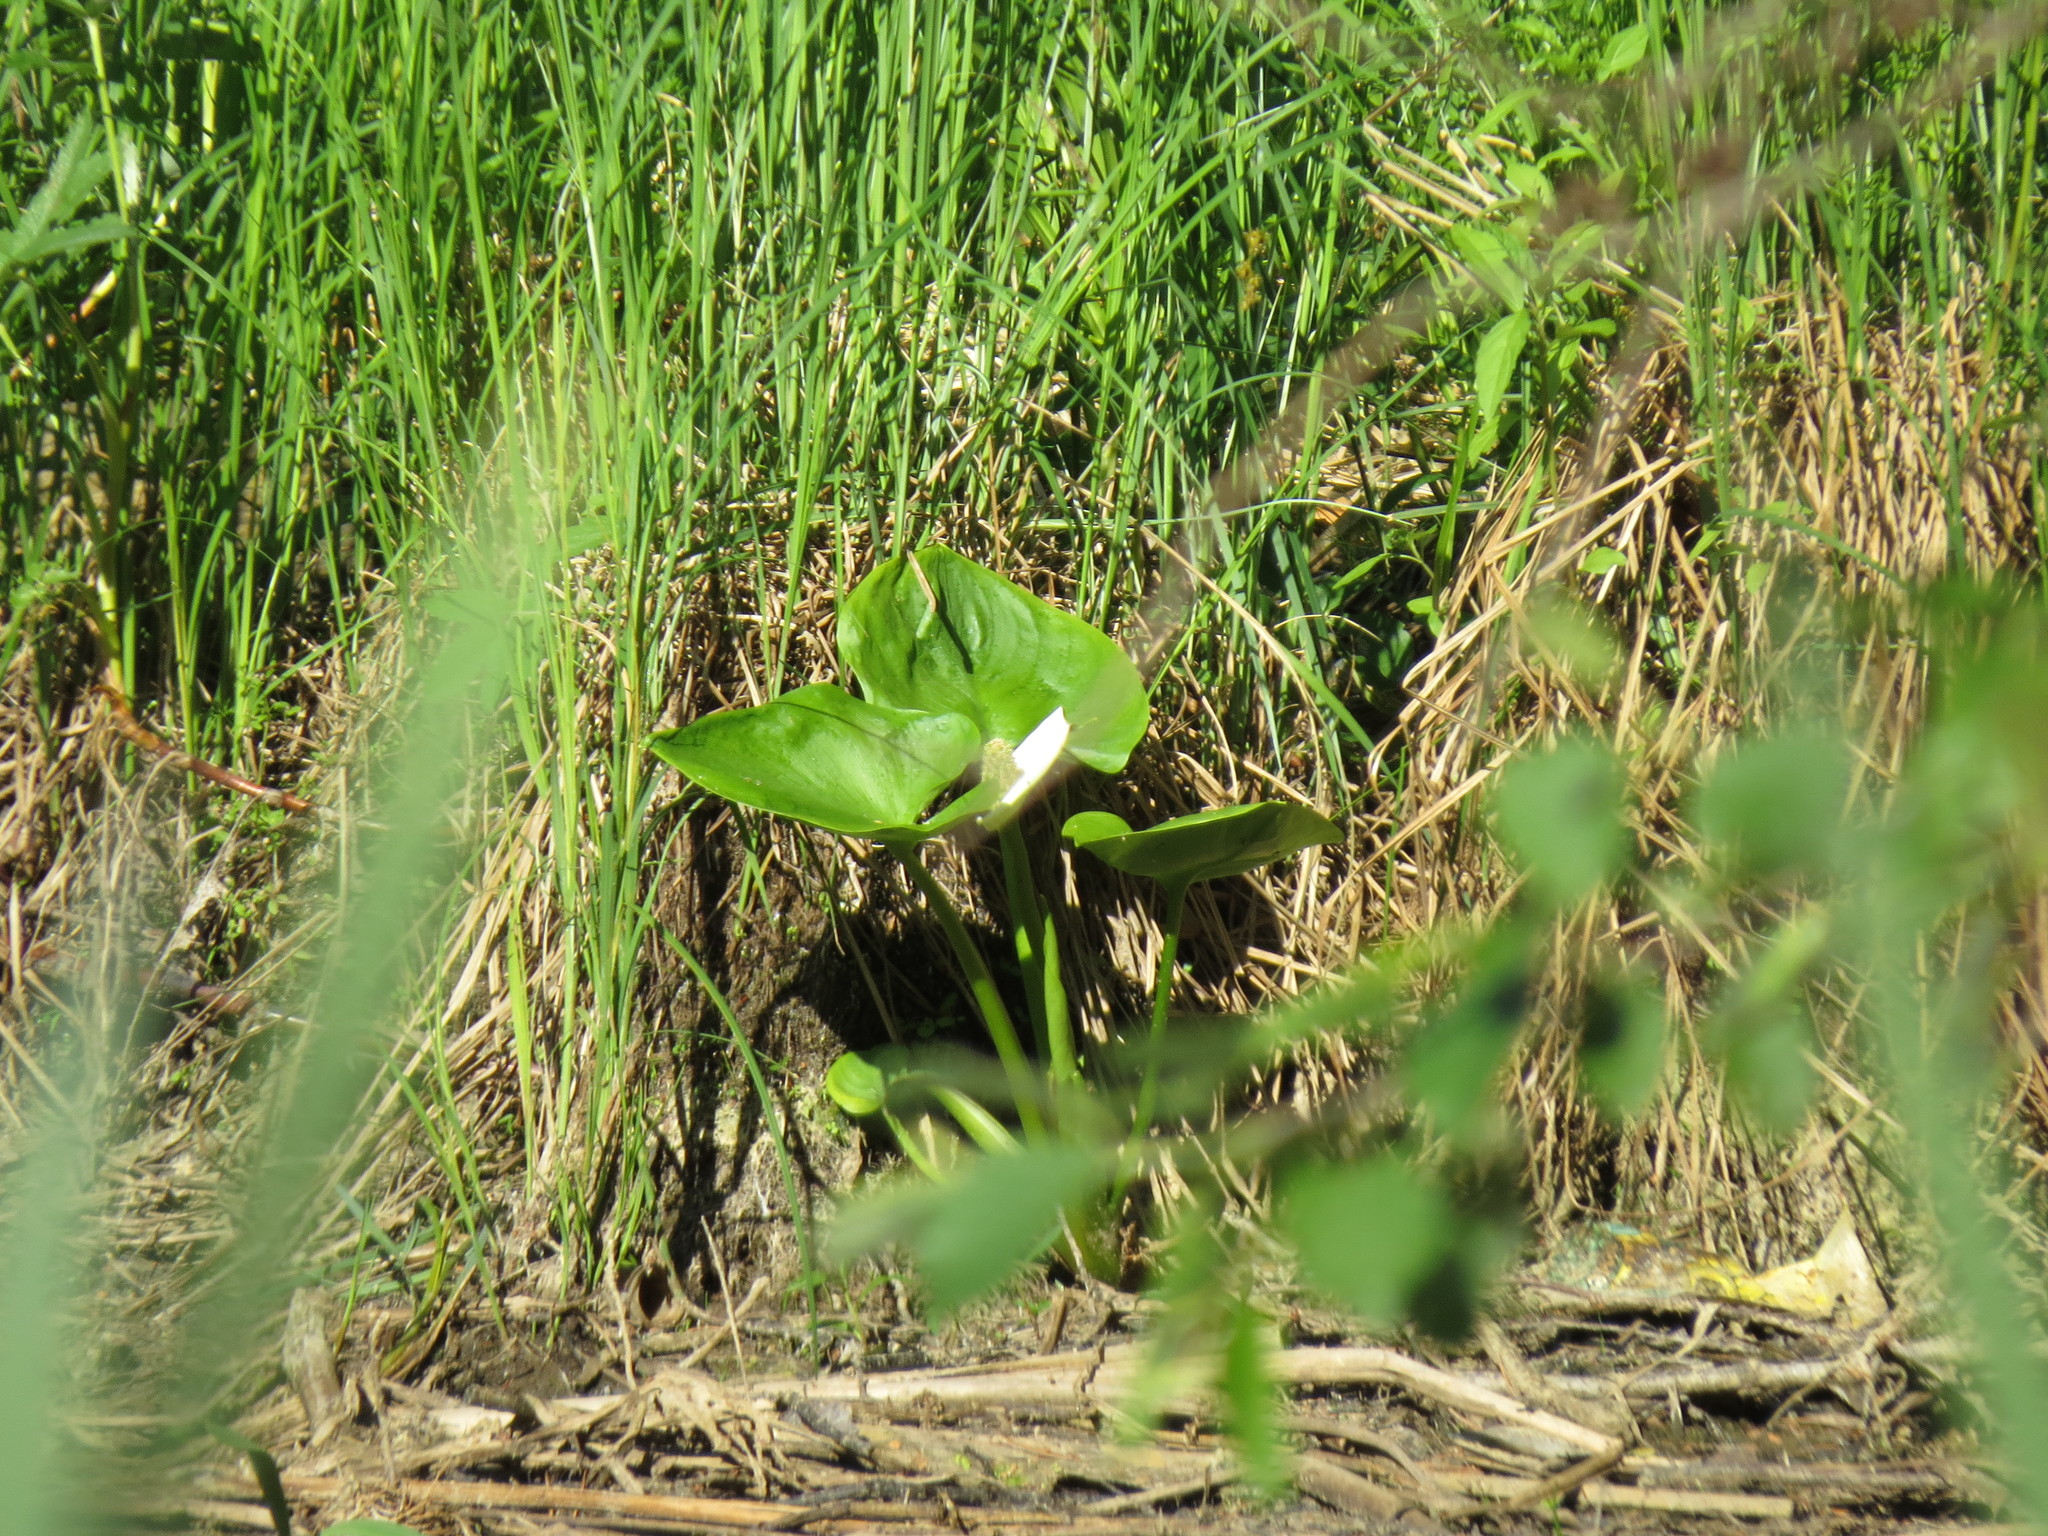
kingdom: Plantae
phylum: Tracheophyta
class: Liliopsida
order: Alismatales
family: Araceae
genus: Calla
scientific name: Calla palustris
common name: Bog arum
